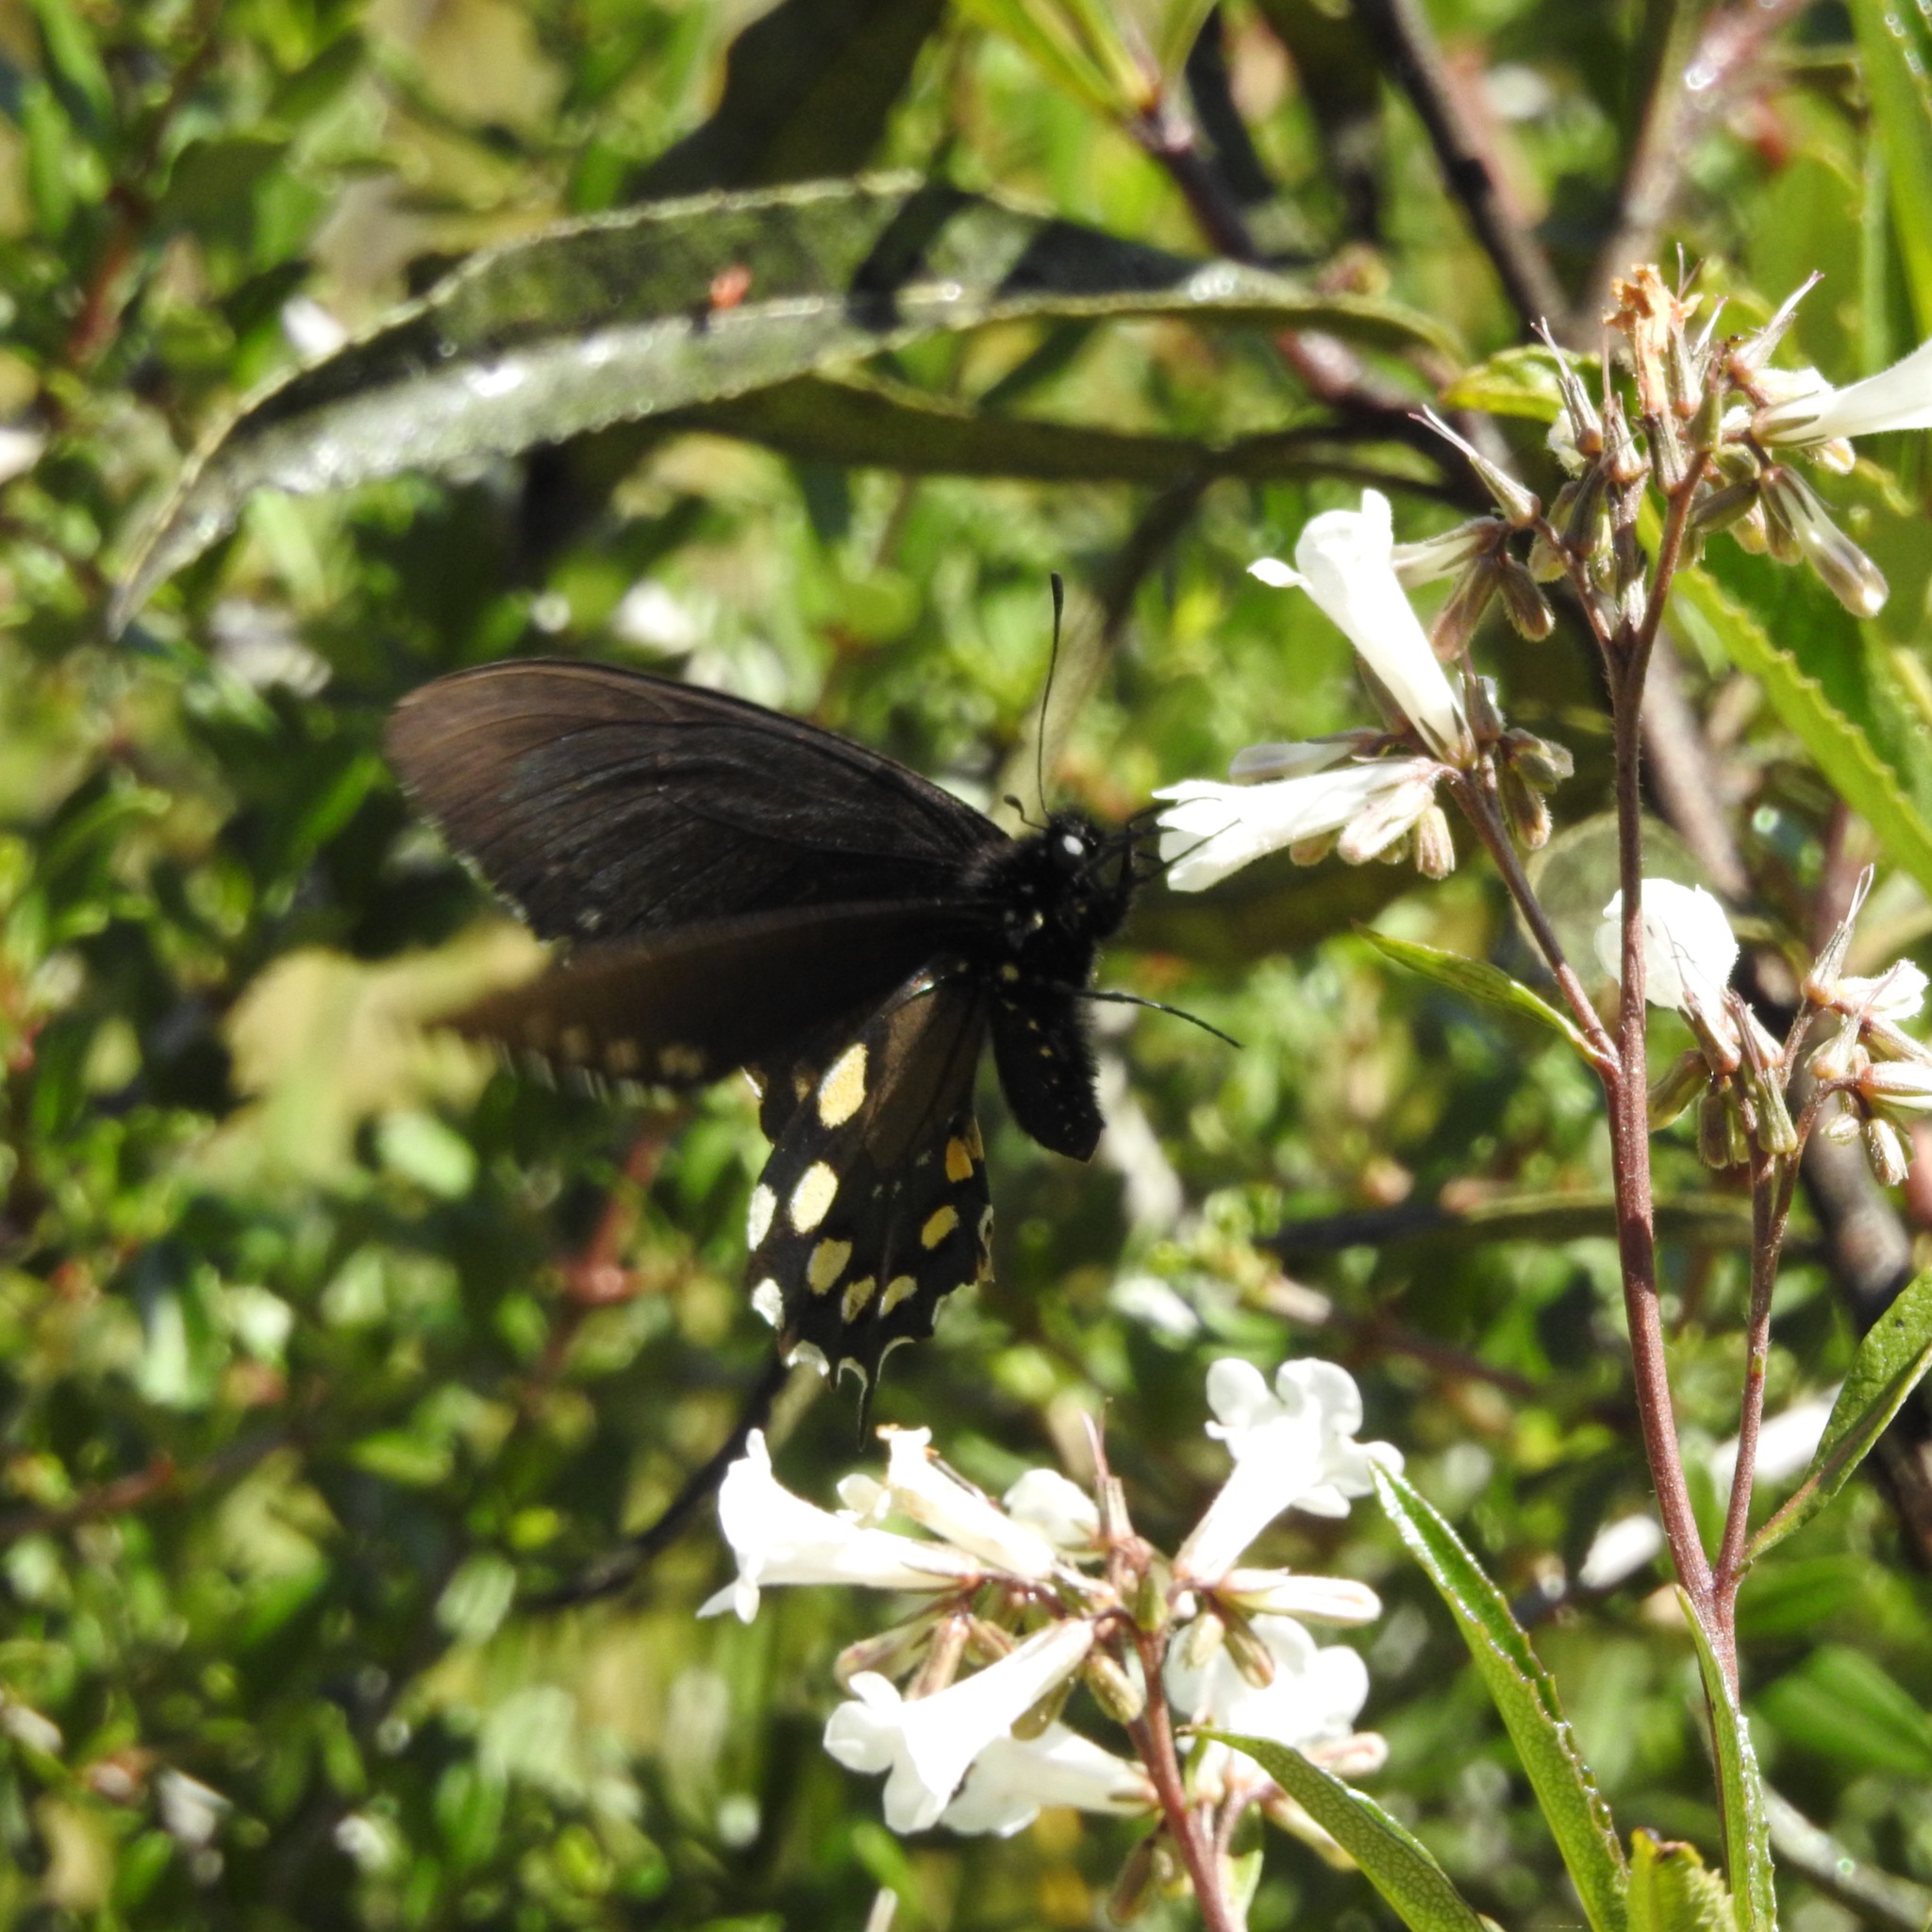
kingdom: Animalia
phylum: Arthropoda
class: Insecta
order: Lepidoptera
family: Papilionidae
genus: Battus
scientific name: Battus philenor
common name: Pipevine swallowtail
